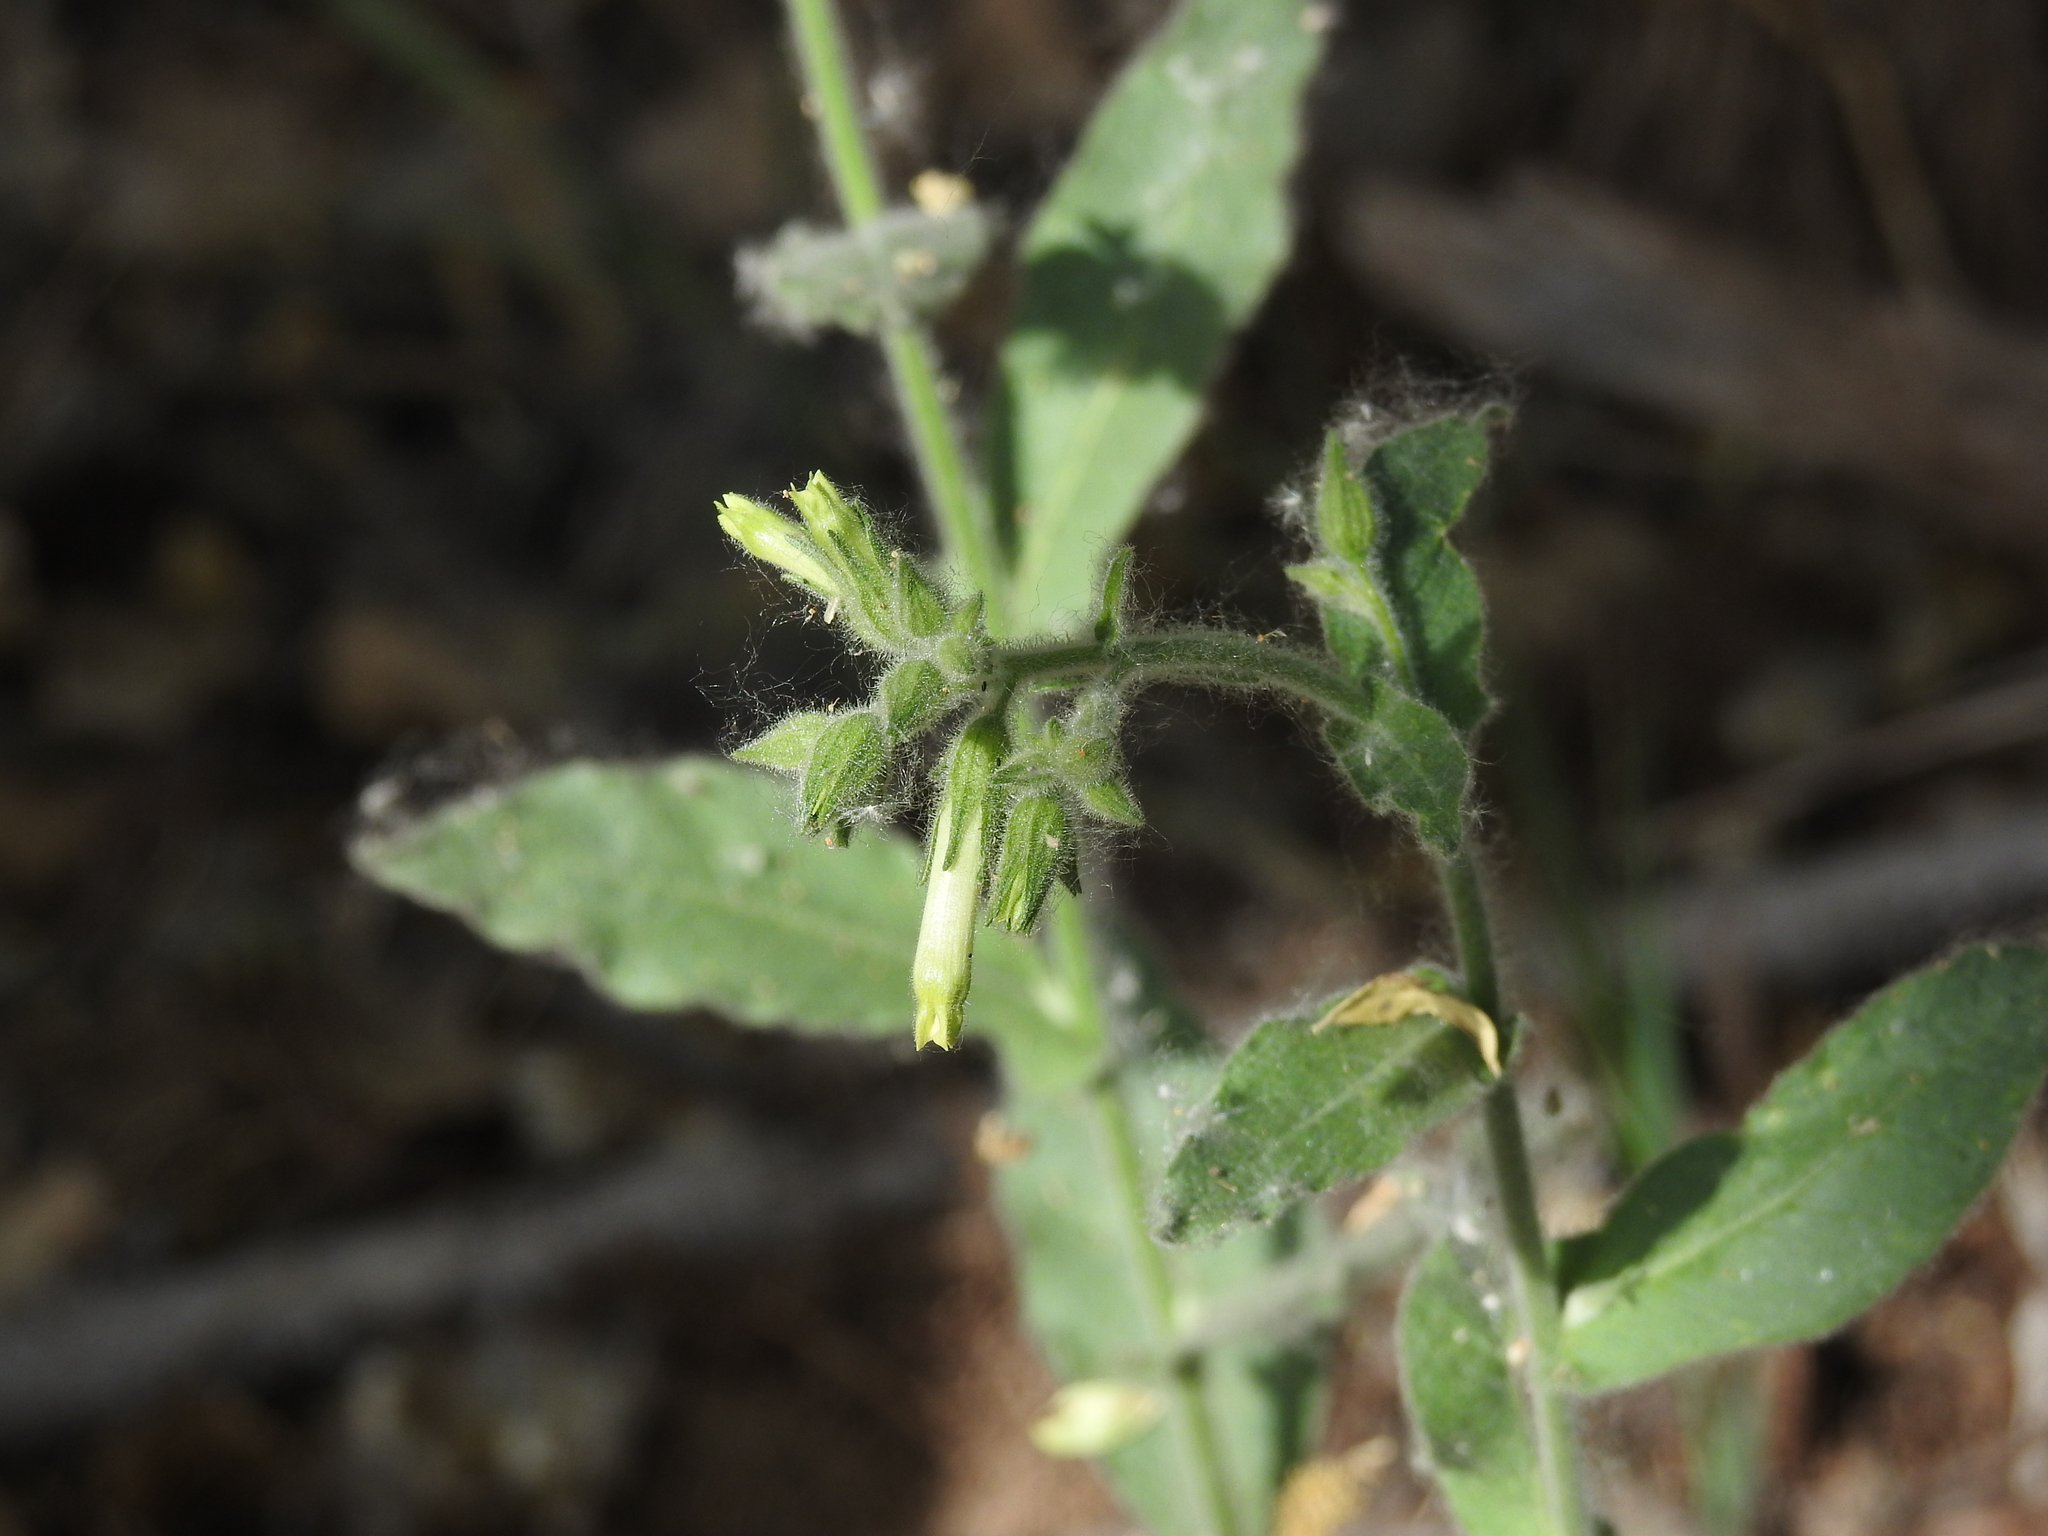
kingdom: Plantae
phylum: Tracheophyta
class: Magnoliopsida
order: Solanales
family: Solanaceae
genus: Nicotiana
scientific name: Nicotiana obtusifolia
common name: Desert tobacco
